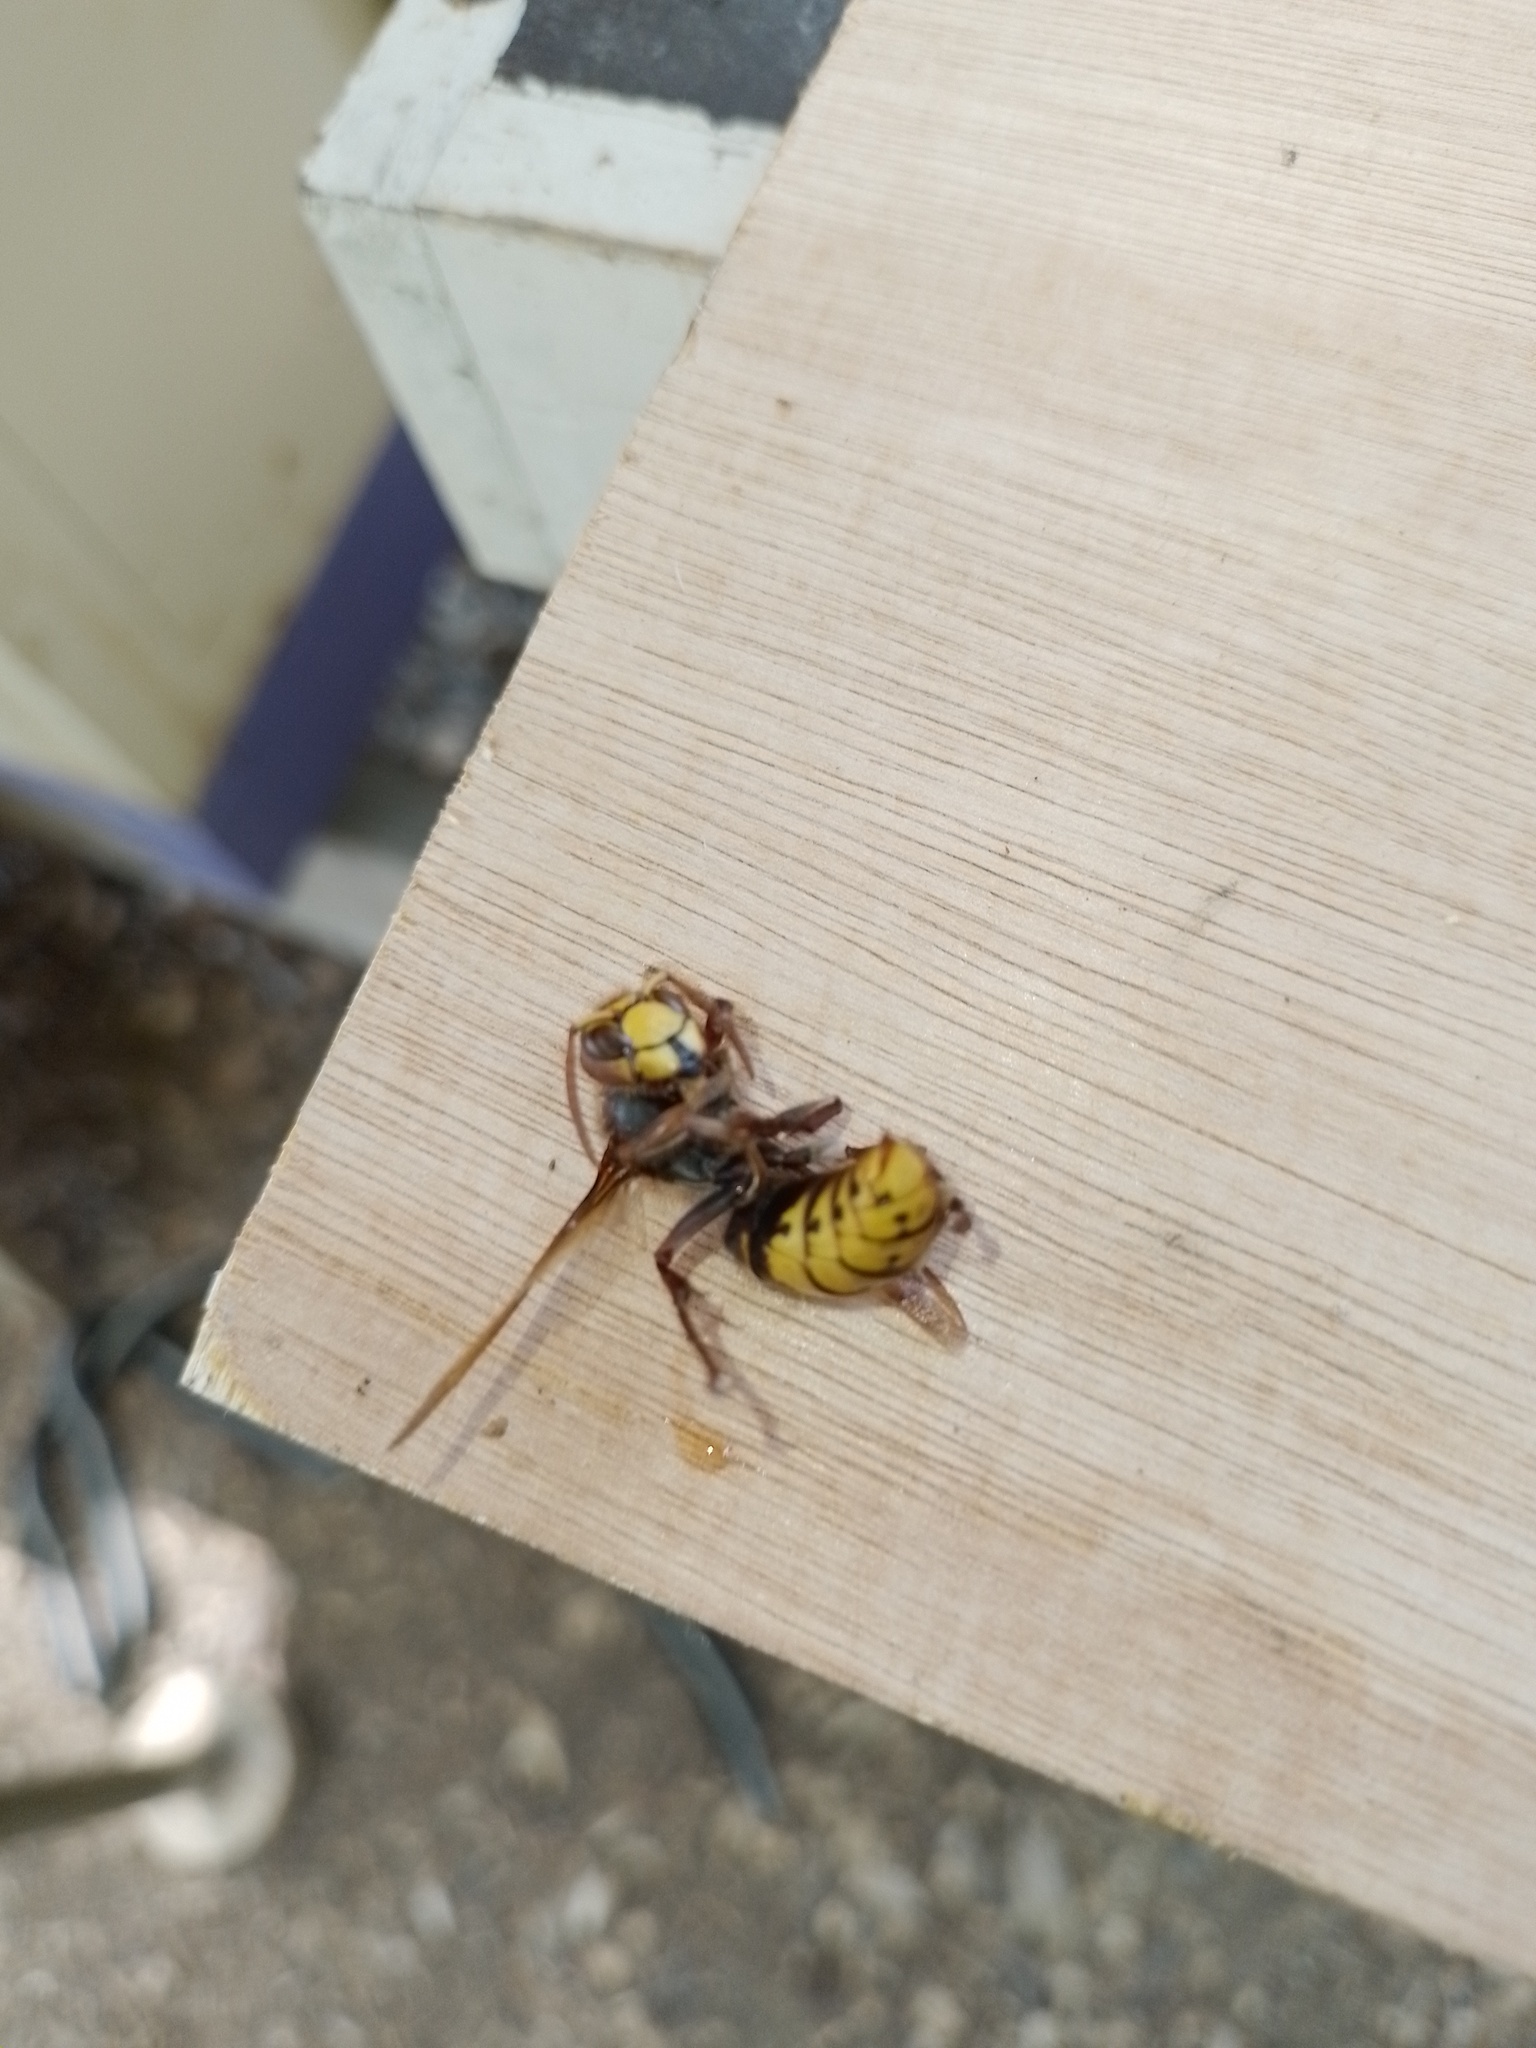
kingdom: Animalia
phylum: Arthropoda
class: Insecta
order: Hymenoptera
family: Vespidae
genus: Vespa
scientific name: Vespa crabro
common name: Hornet
